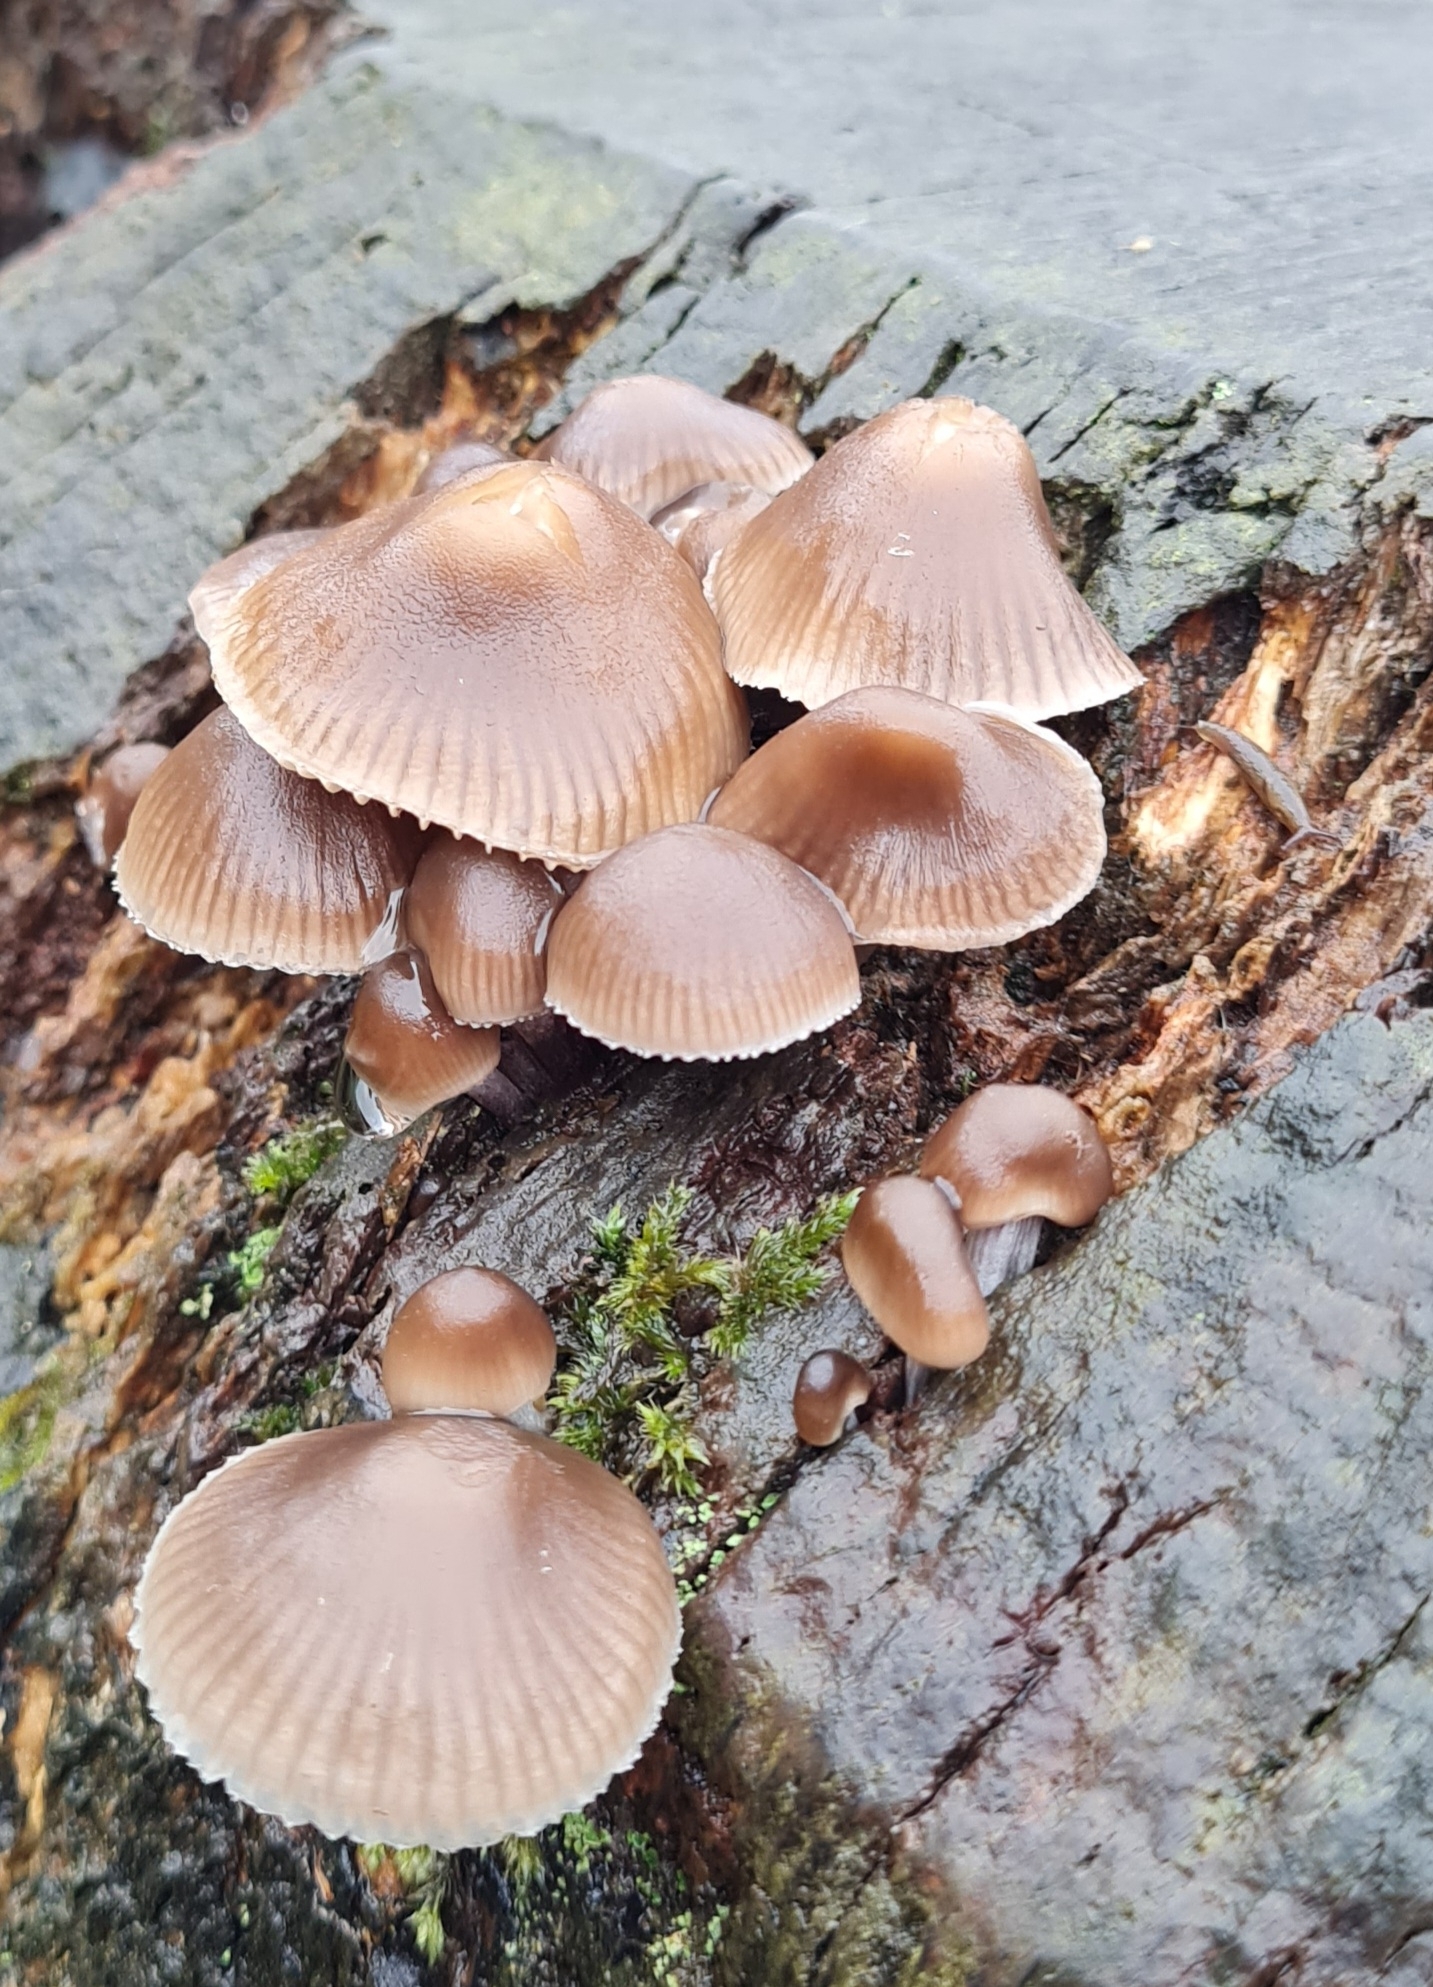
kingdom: Fungi
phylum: Basidiomycota
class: Agaricomycetes
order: Agaricales
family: Mycenaceae
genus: Mycena
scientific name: Mycena galericulata
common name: Bonnet mycena
